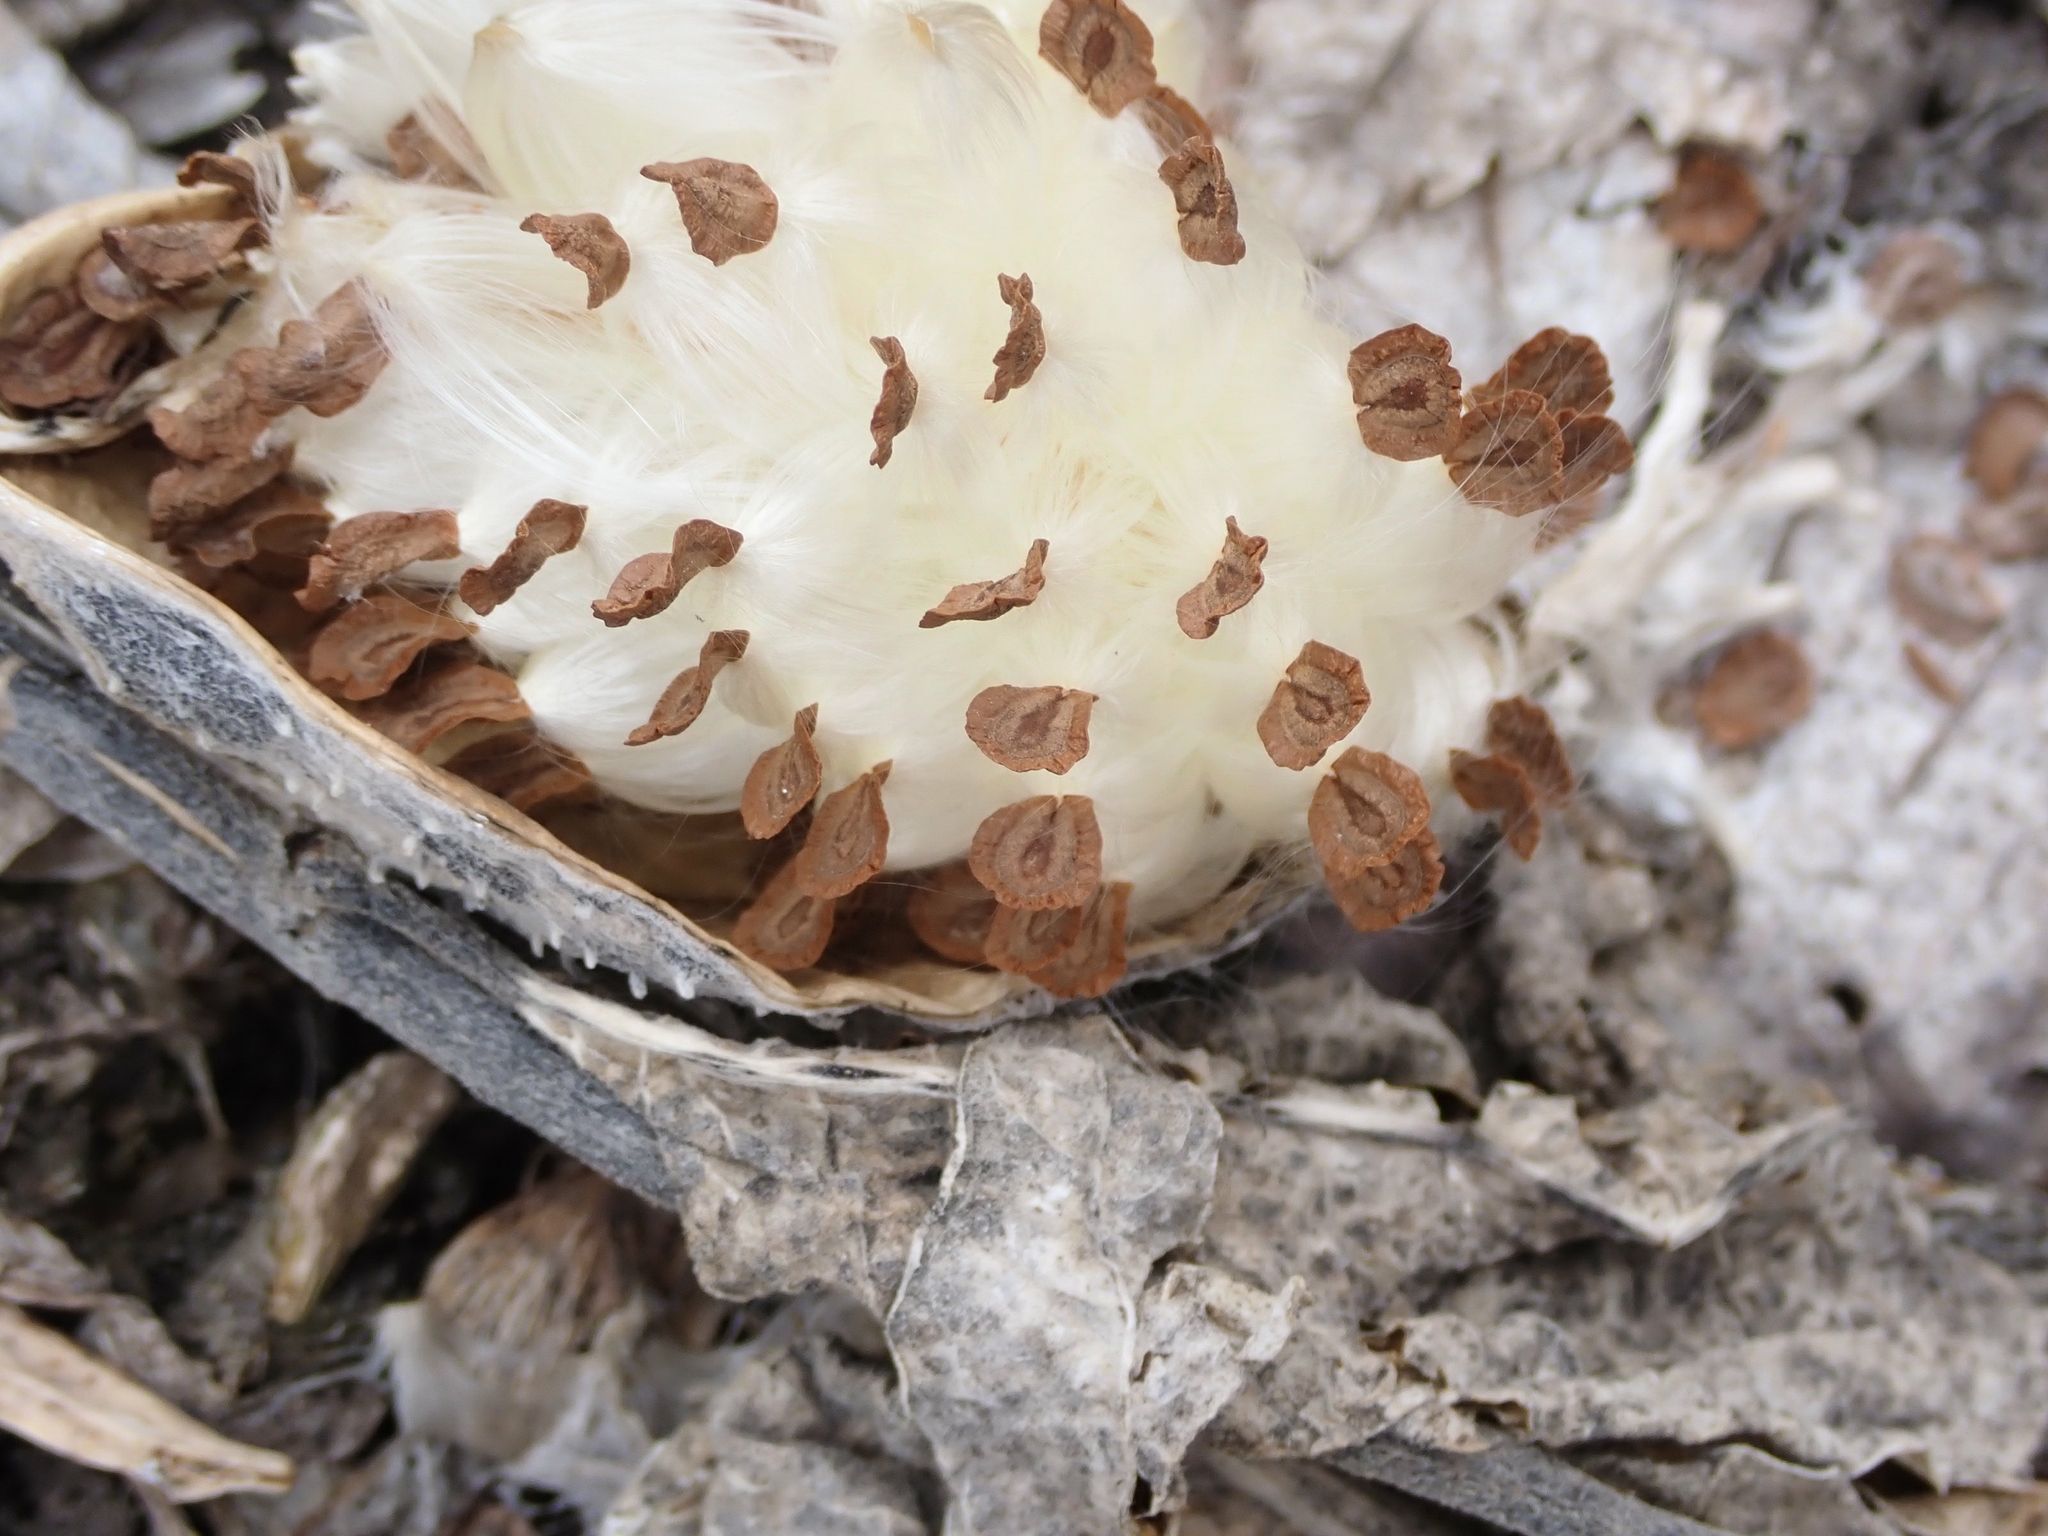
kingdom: Plantae
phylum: Tracheophyta
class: Magnoliopsida
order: Gentianales
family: Apocynaceae
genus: Asclepias
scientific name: Asclepias syriaca
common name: Common milkweed
